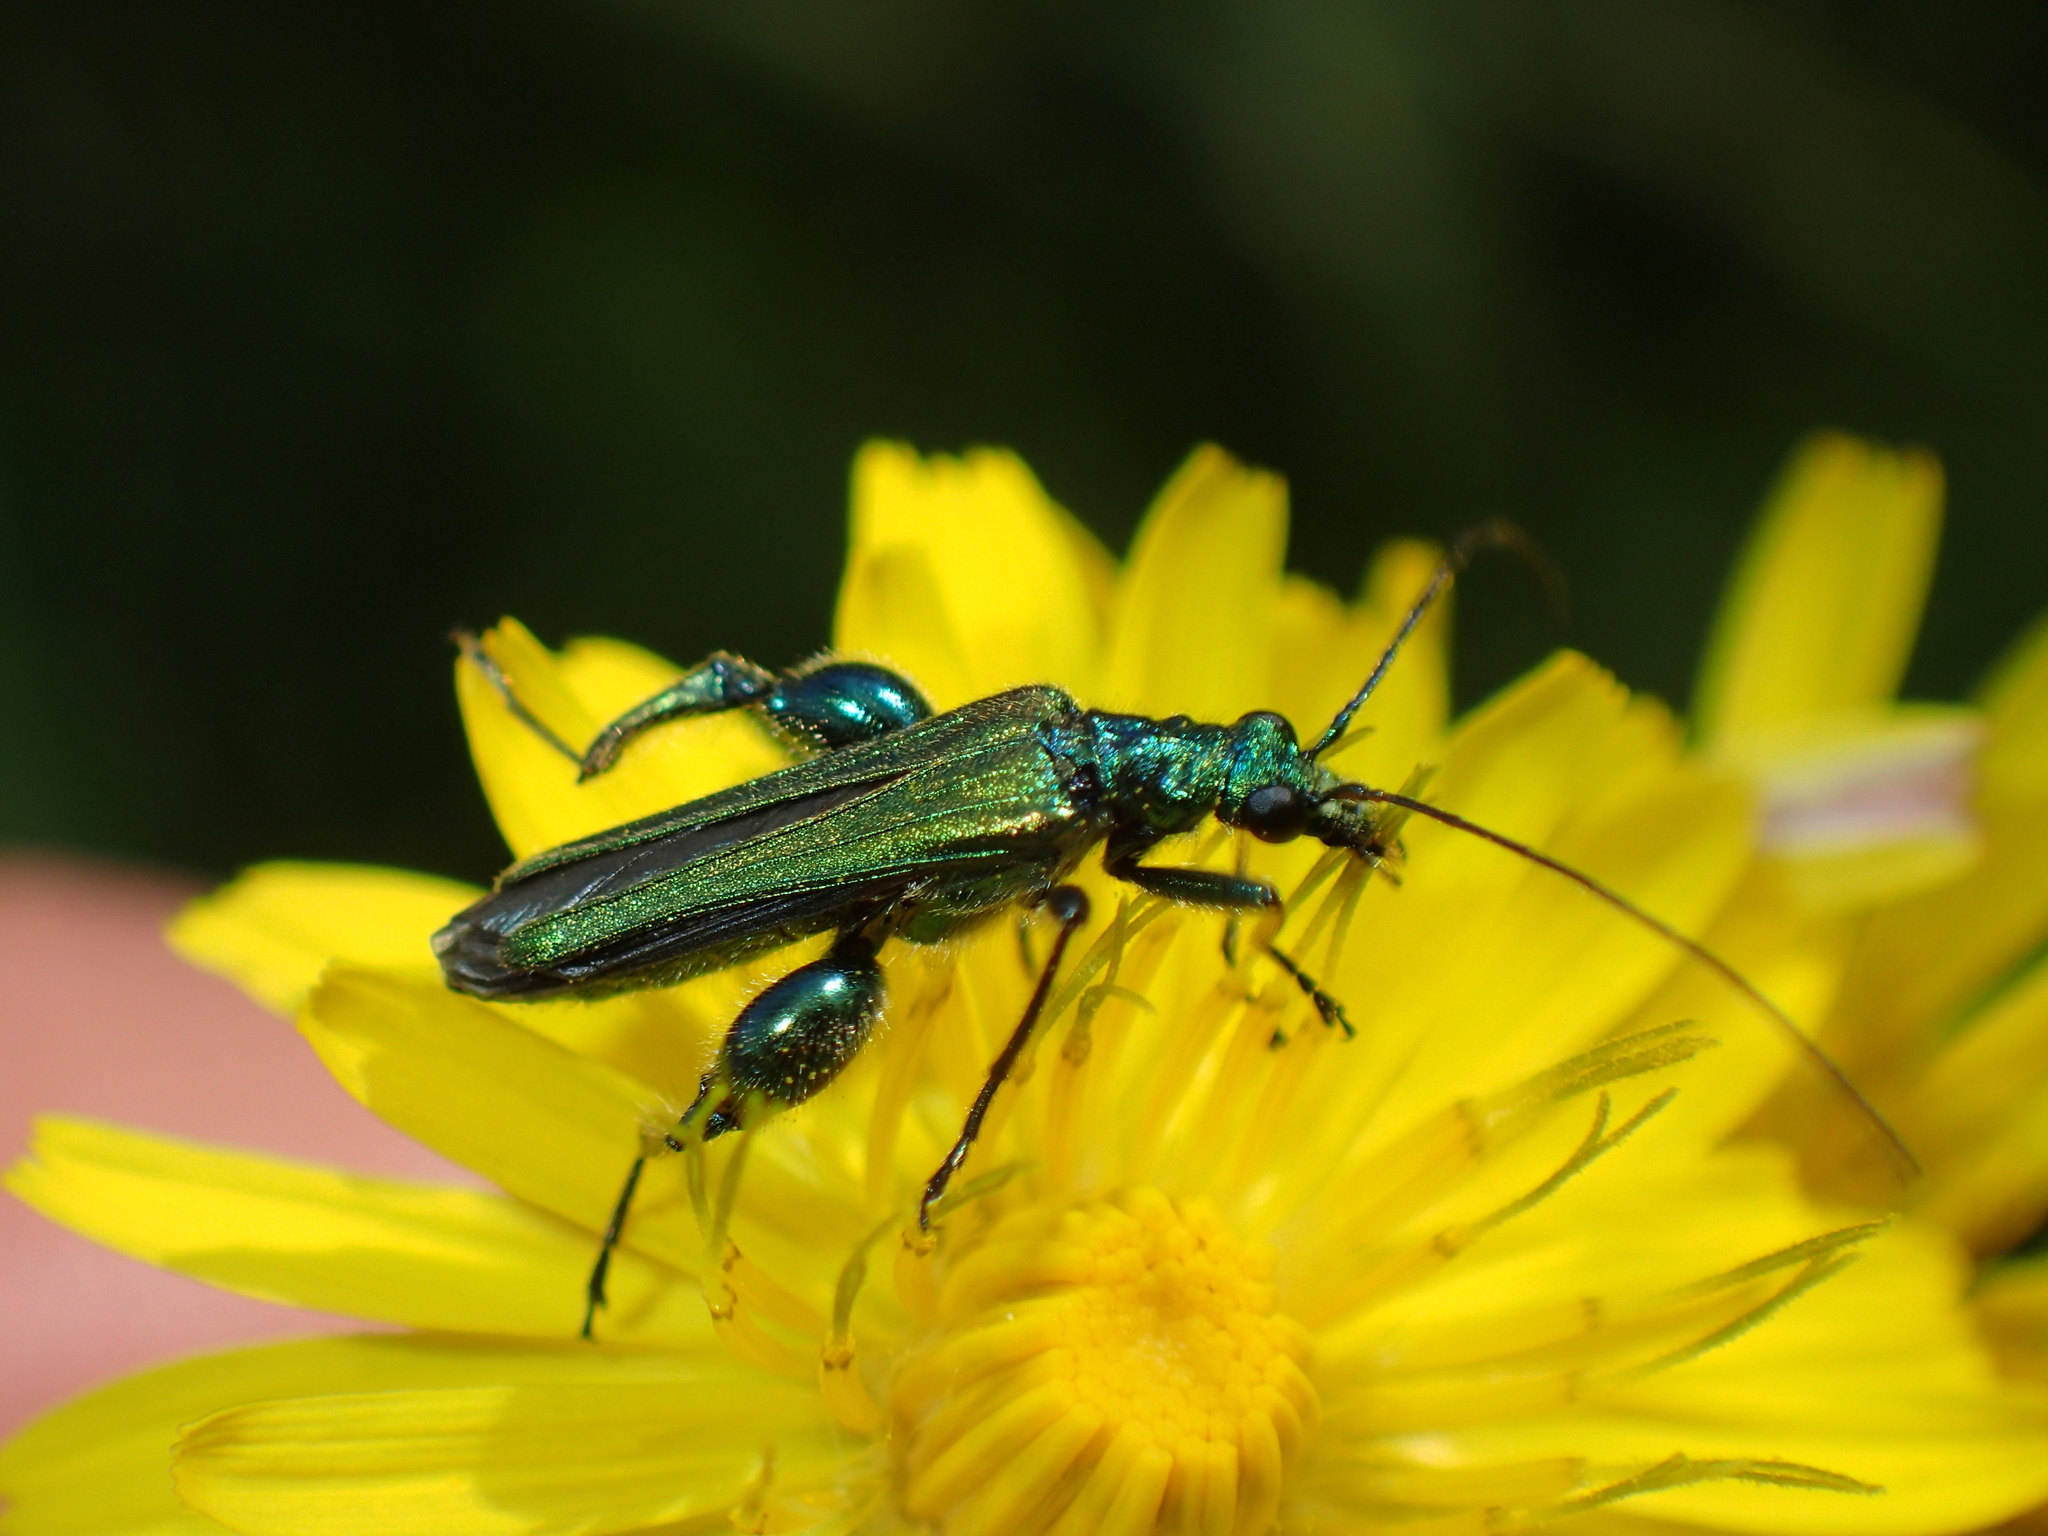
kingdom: Animalia
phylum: Arthropoda
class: Insecta
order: Coleoptera
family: Oedemeridae
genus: Oedemera
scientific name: Oedemera nobilis
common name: Swollen-thighed beetle
